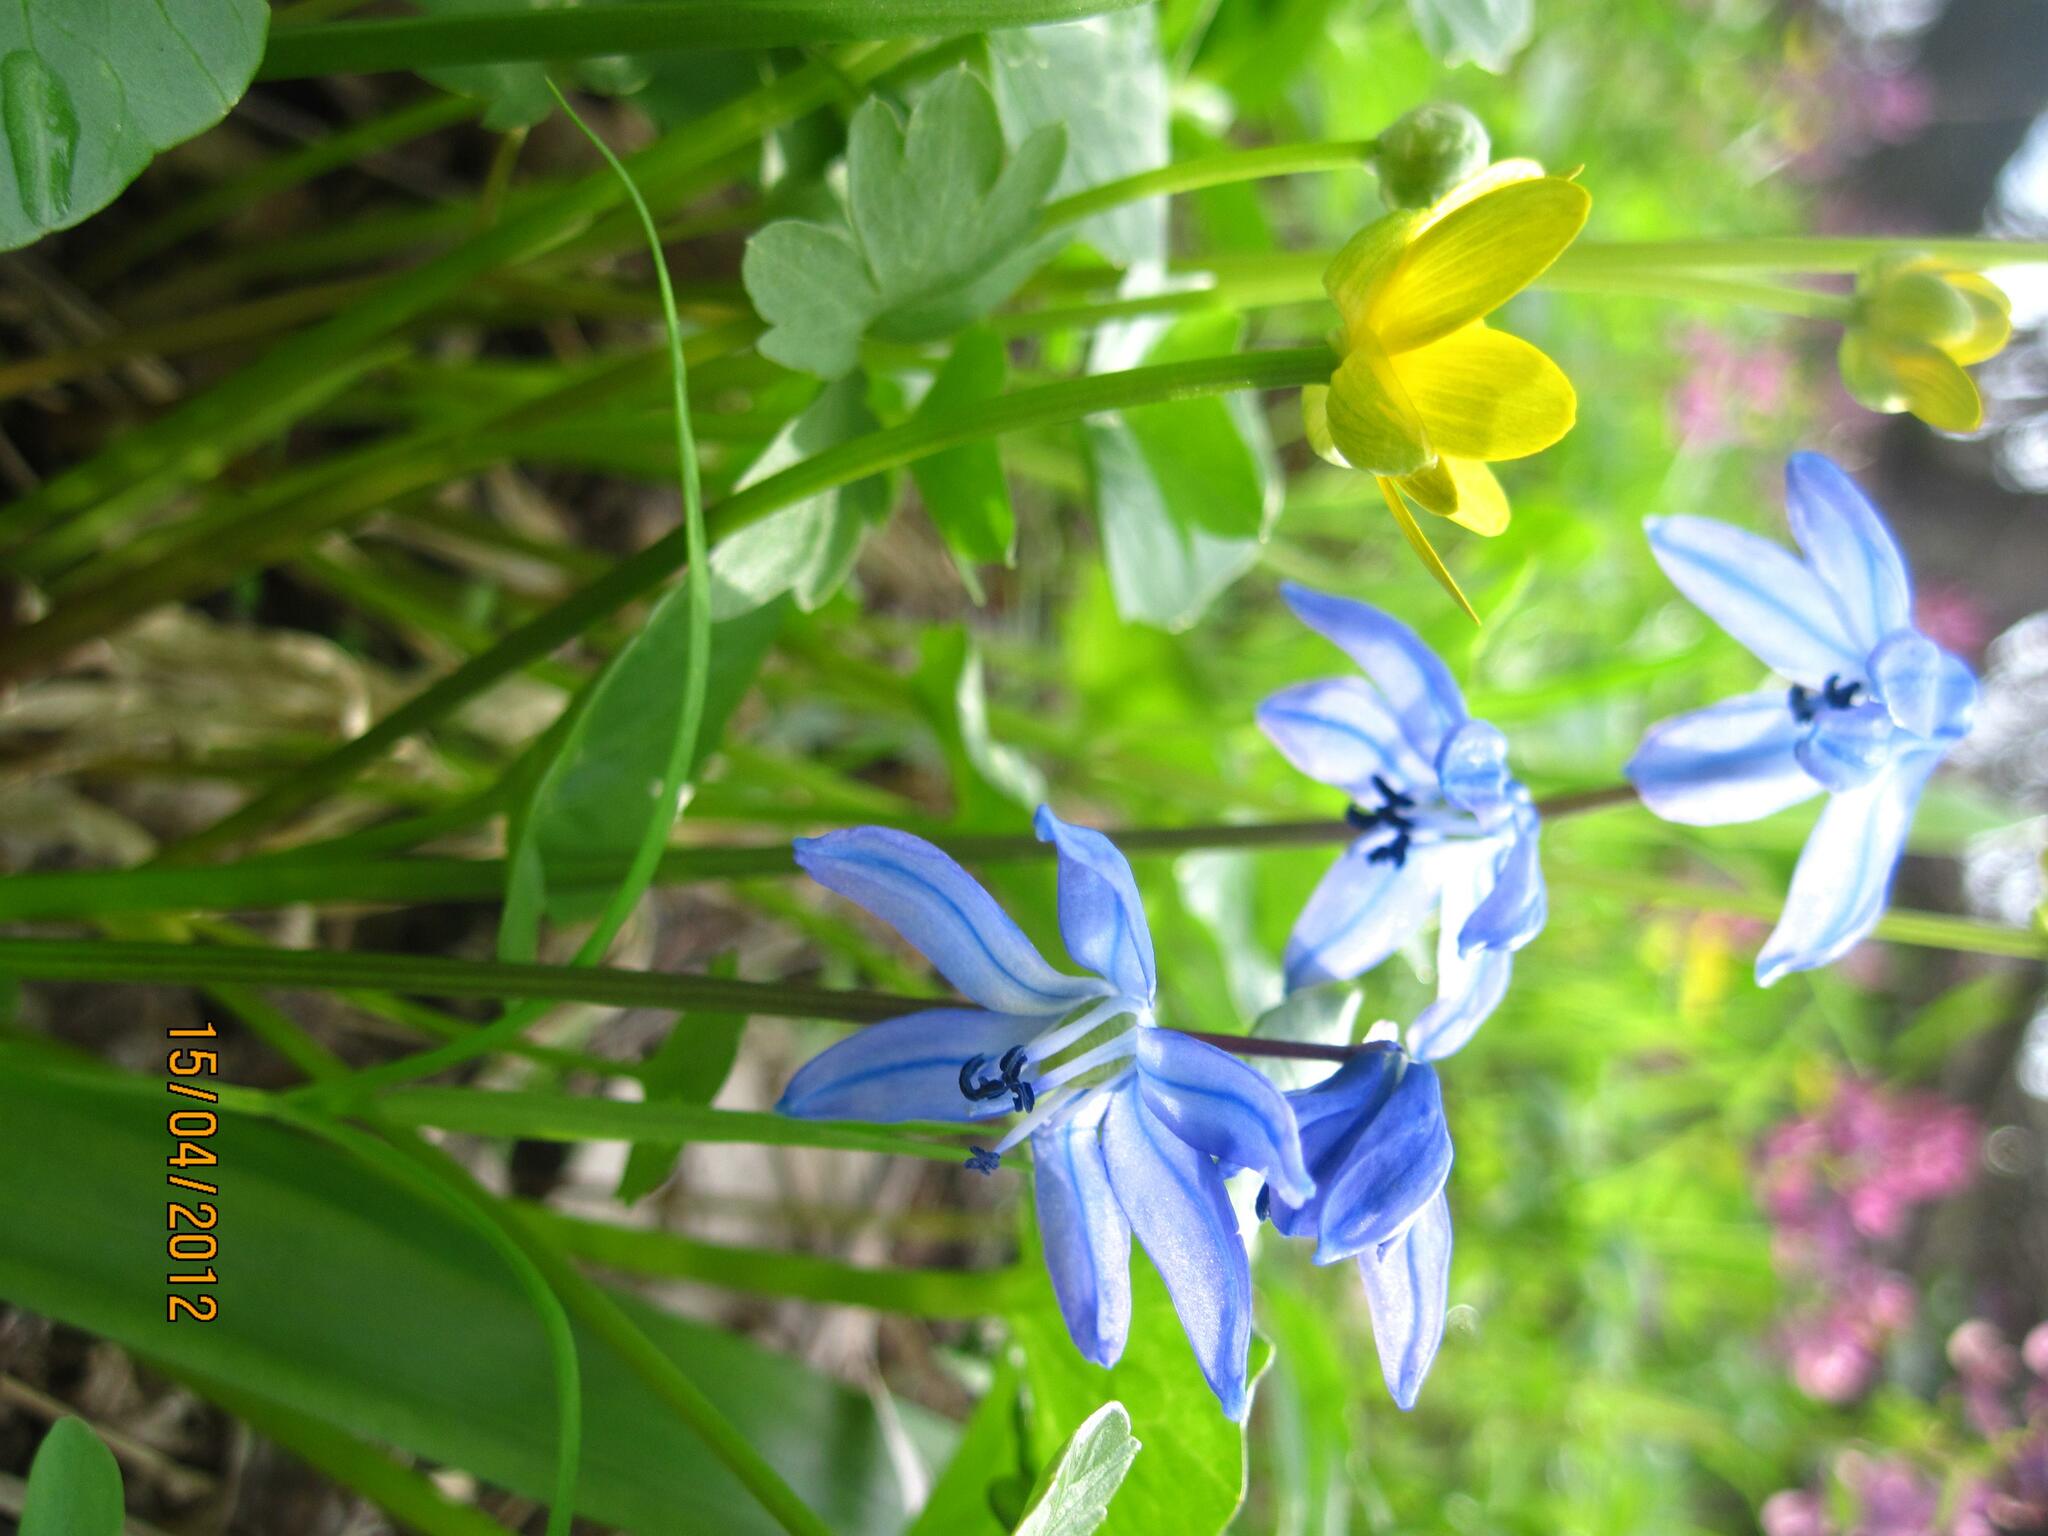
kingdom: Plantae
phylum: Tracheophyta
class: Liliopsida
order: Asparagales
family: Asparagaceae
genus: Scilla
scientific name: Scilla siberica
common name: Siberian squill
